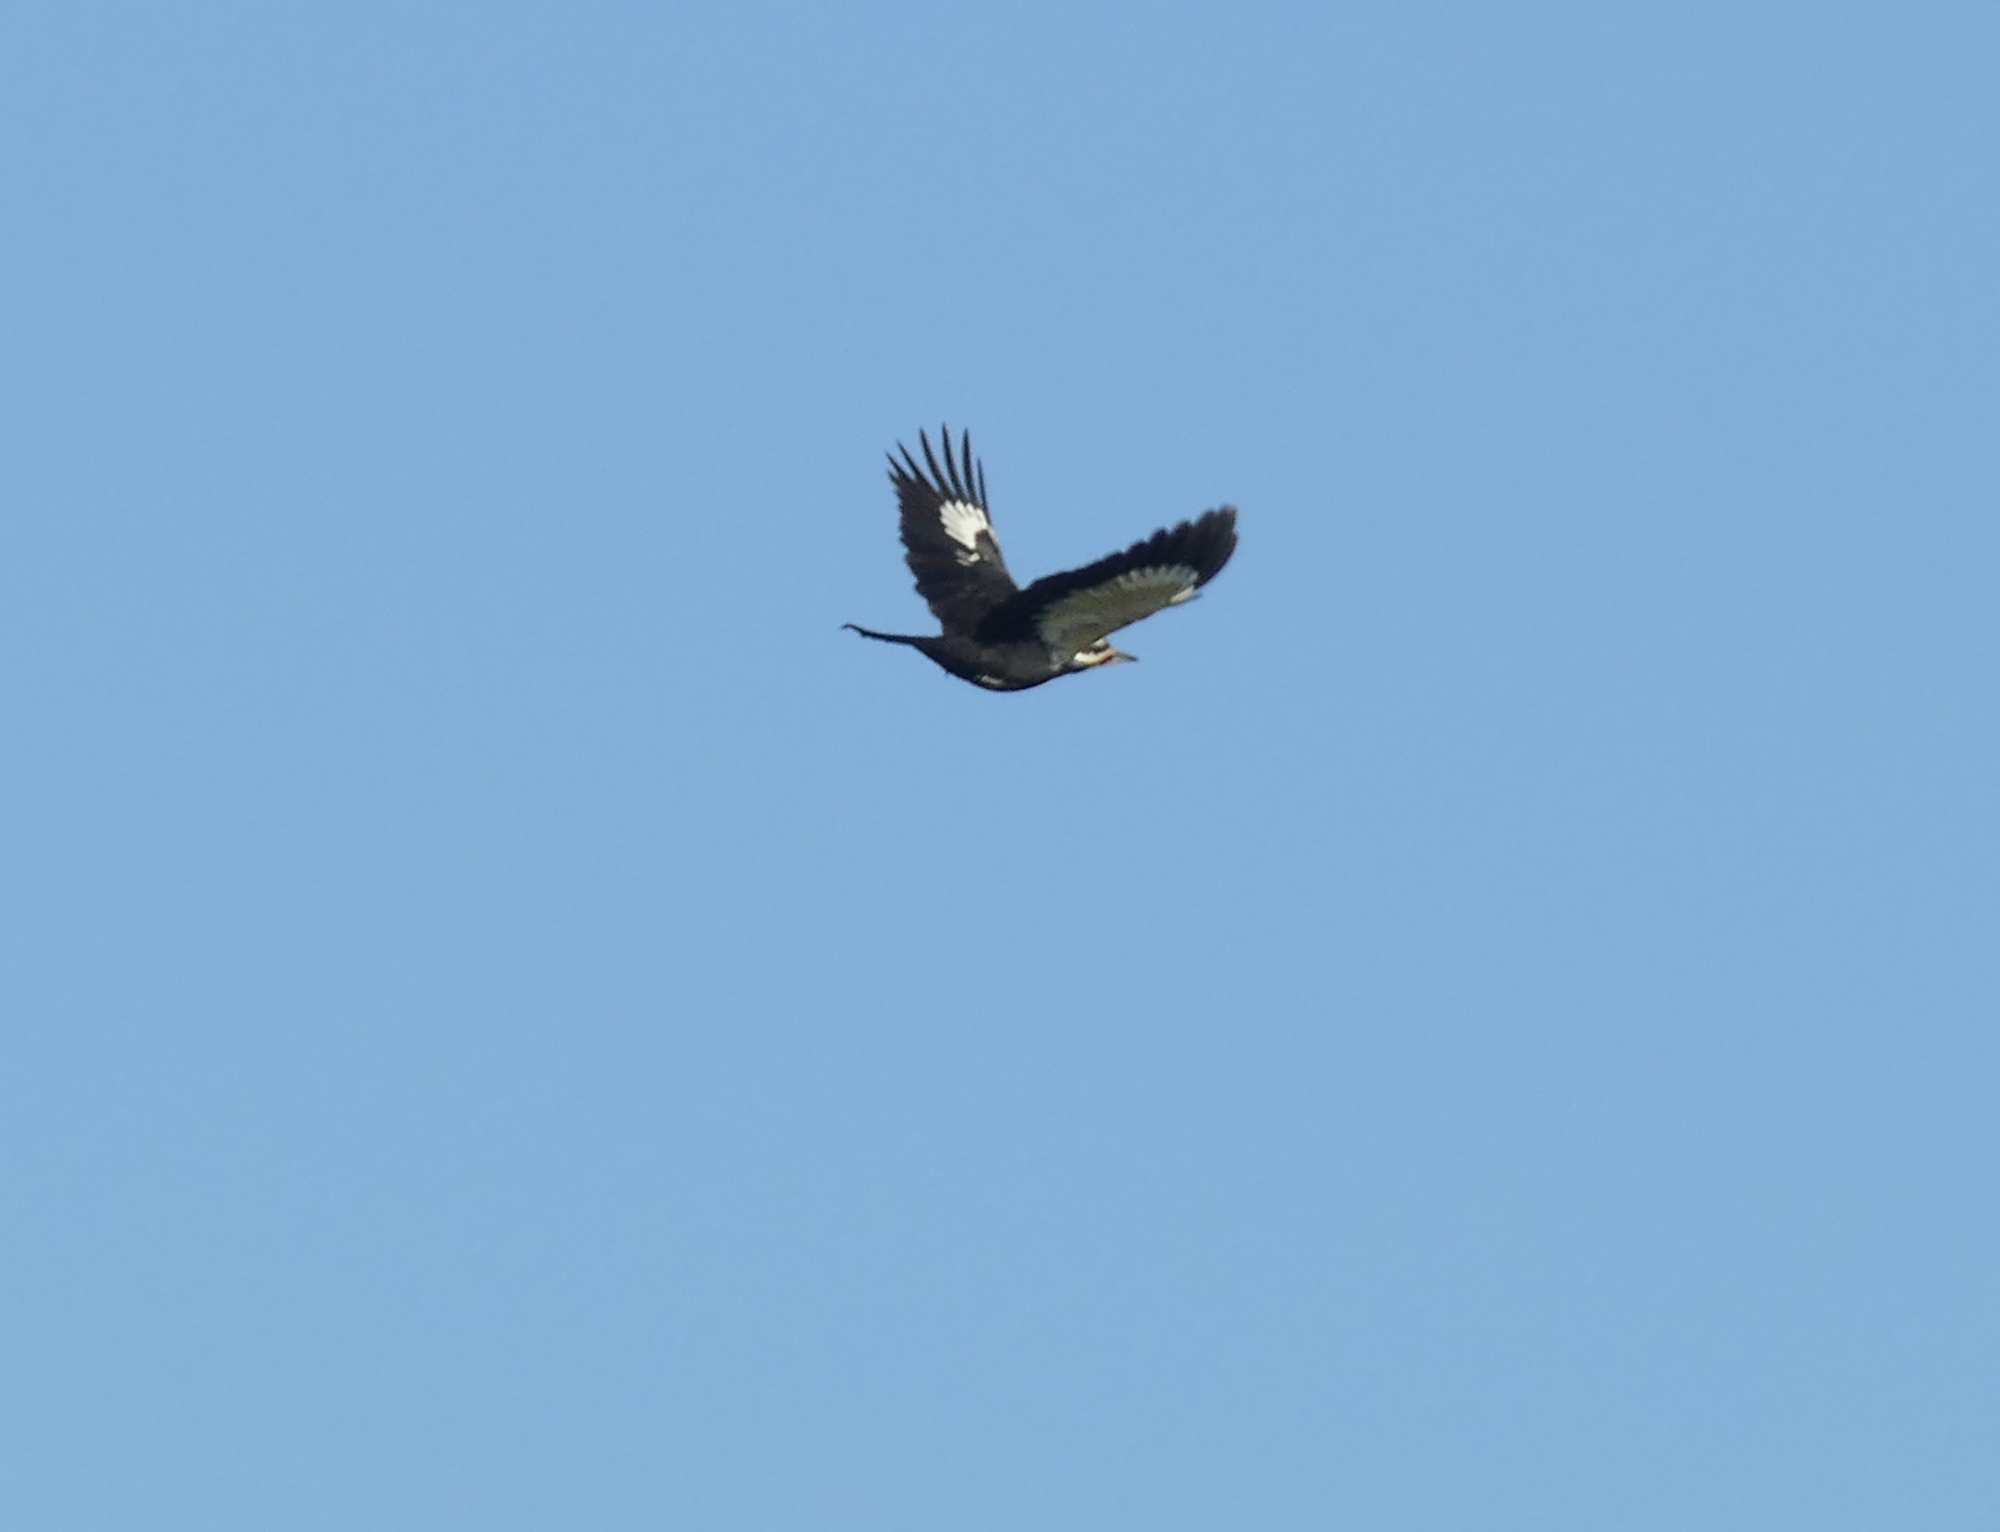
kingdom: Animalia
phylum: Chordata
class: Aves
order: Piciformes
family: Picidae
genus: Dryocopus
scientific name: Dryocopus pileatus
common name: Pileated woodpecker
